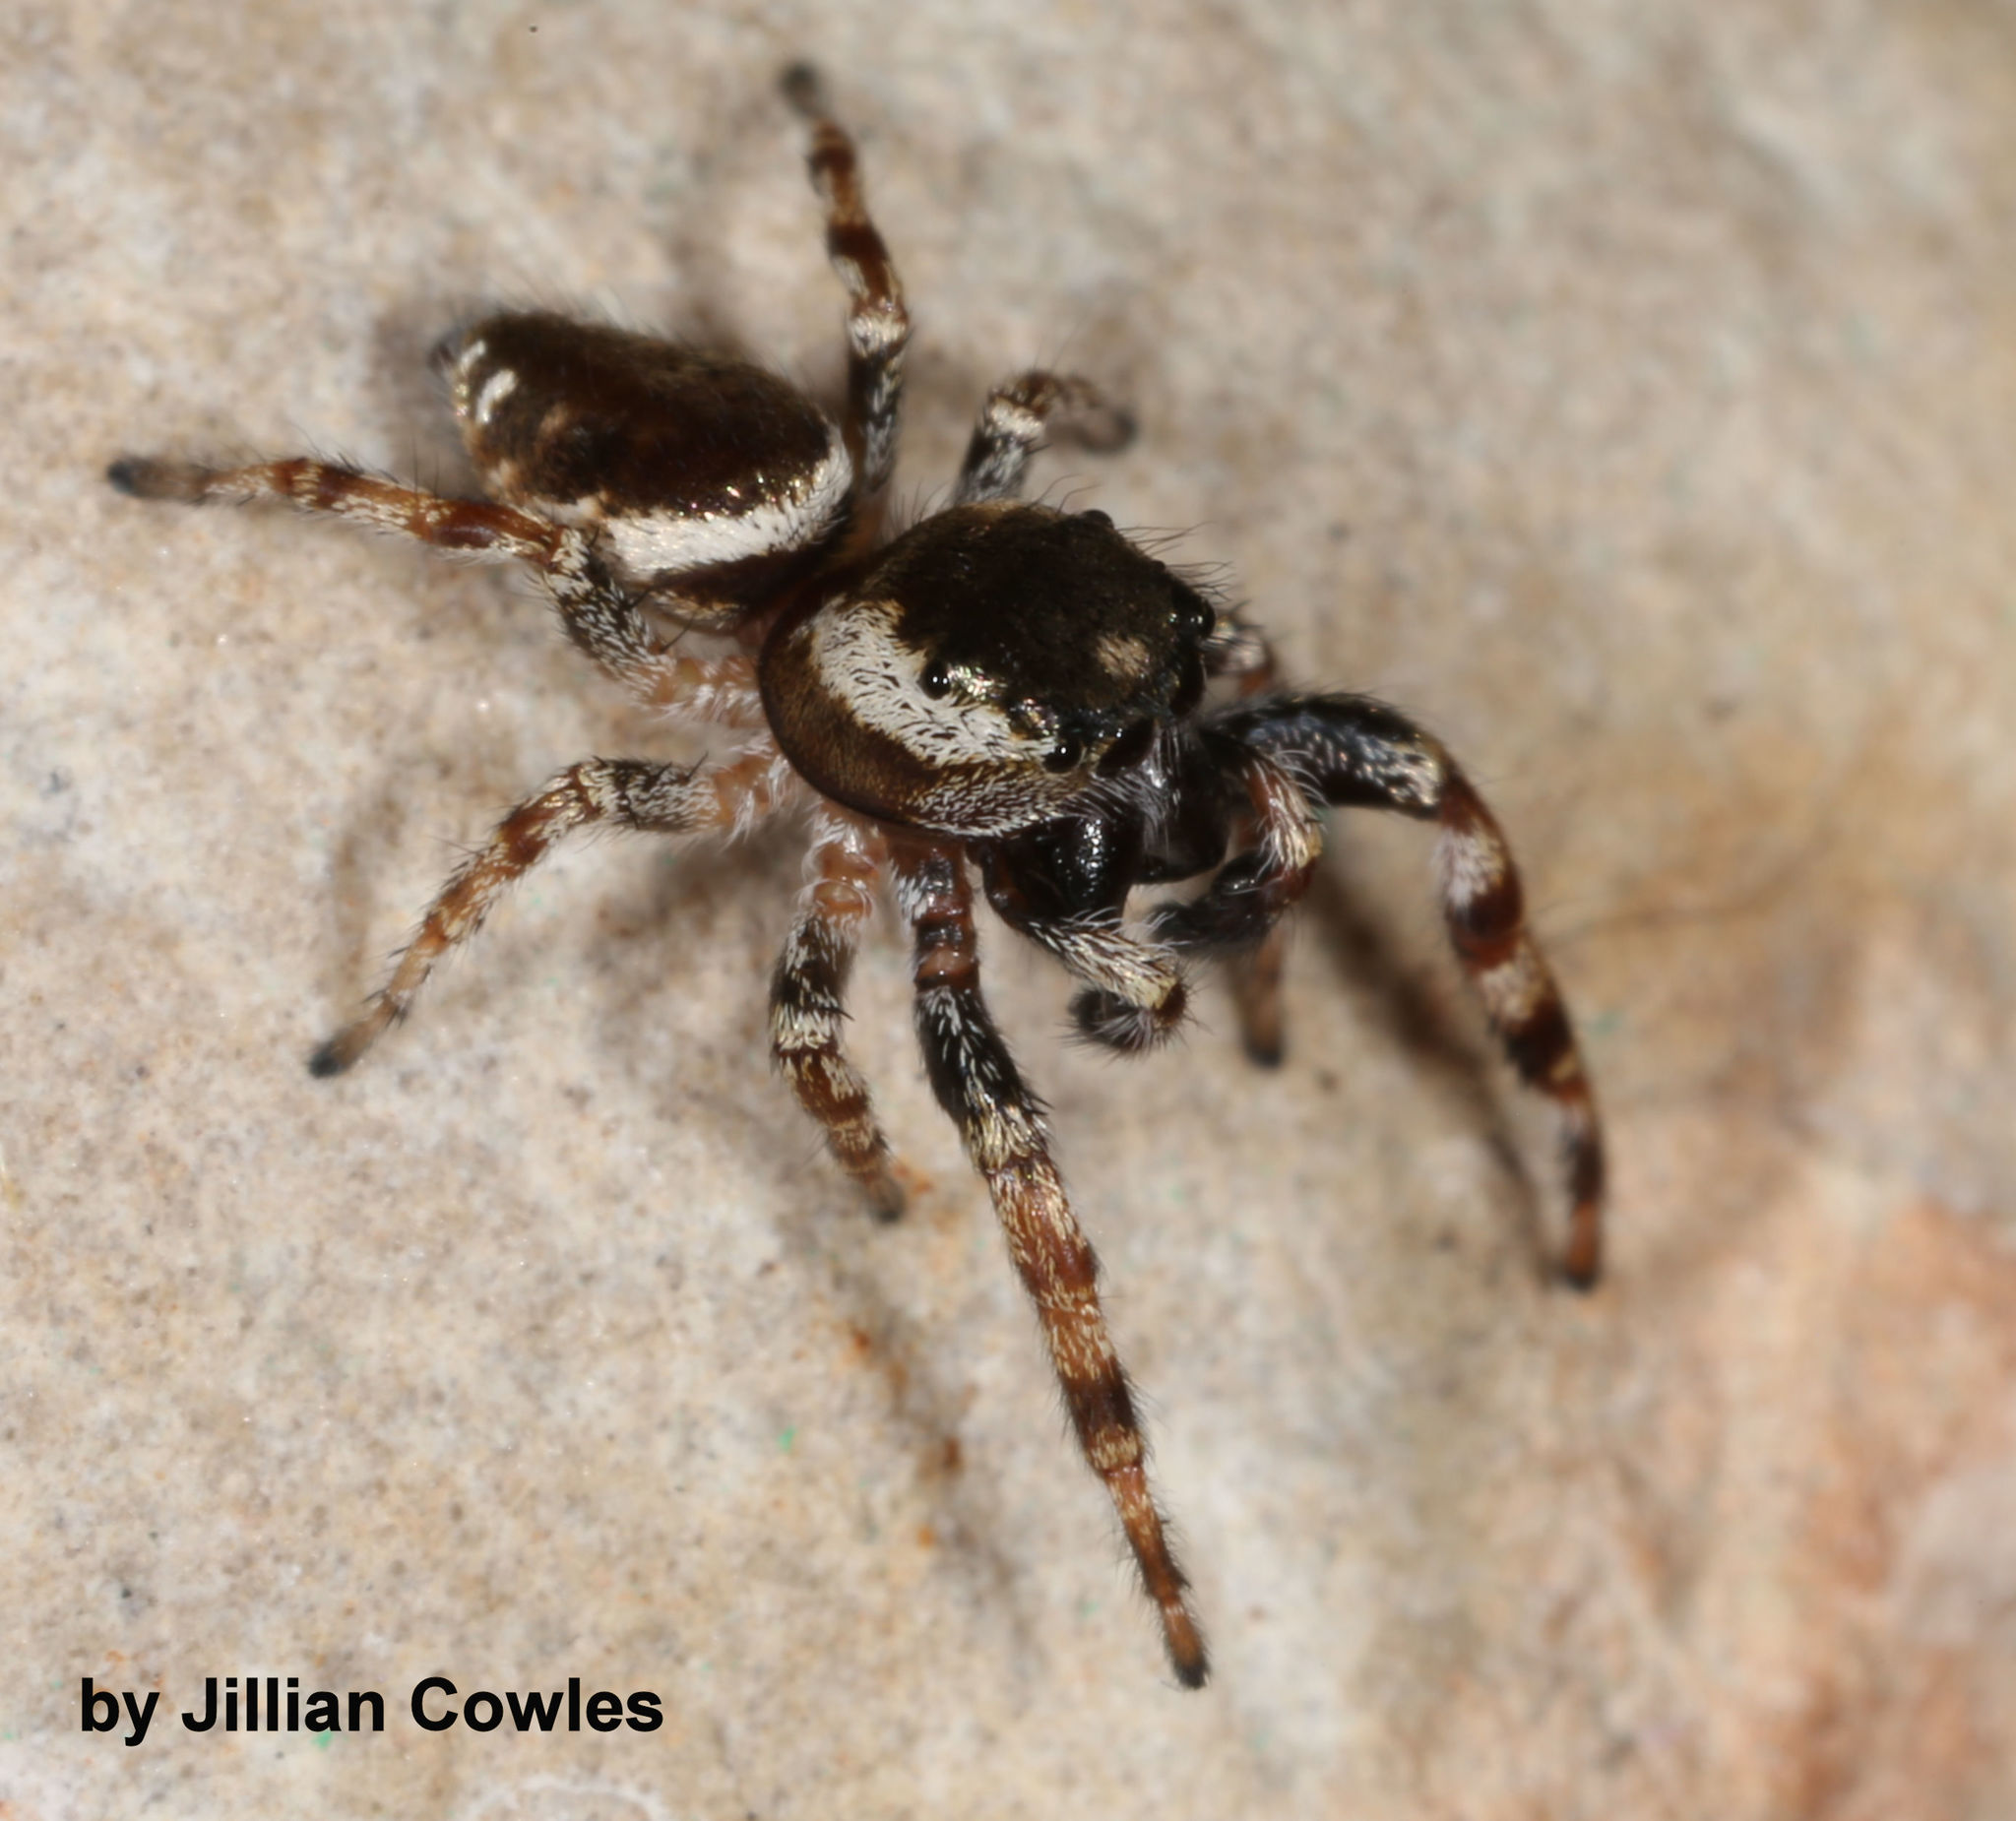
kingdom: Animalia
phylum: Arthropoda
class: Arachnida
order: Araneae
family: Salticidae
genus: Pelegrina
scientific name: Pelegrina chalceola
